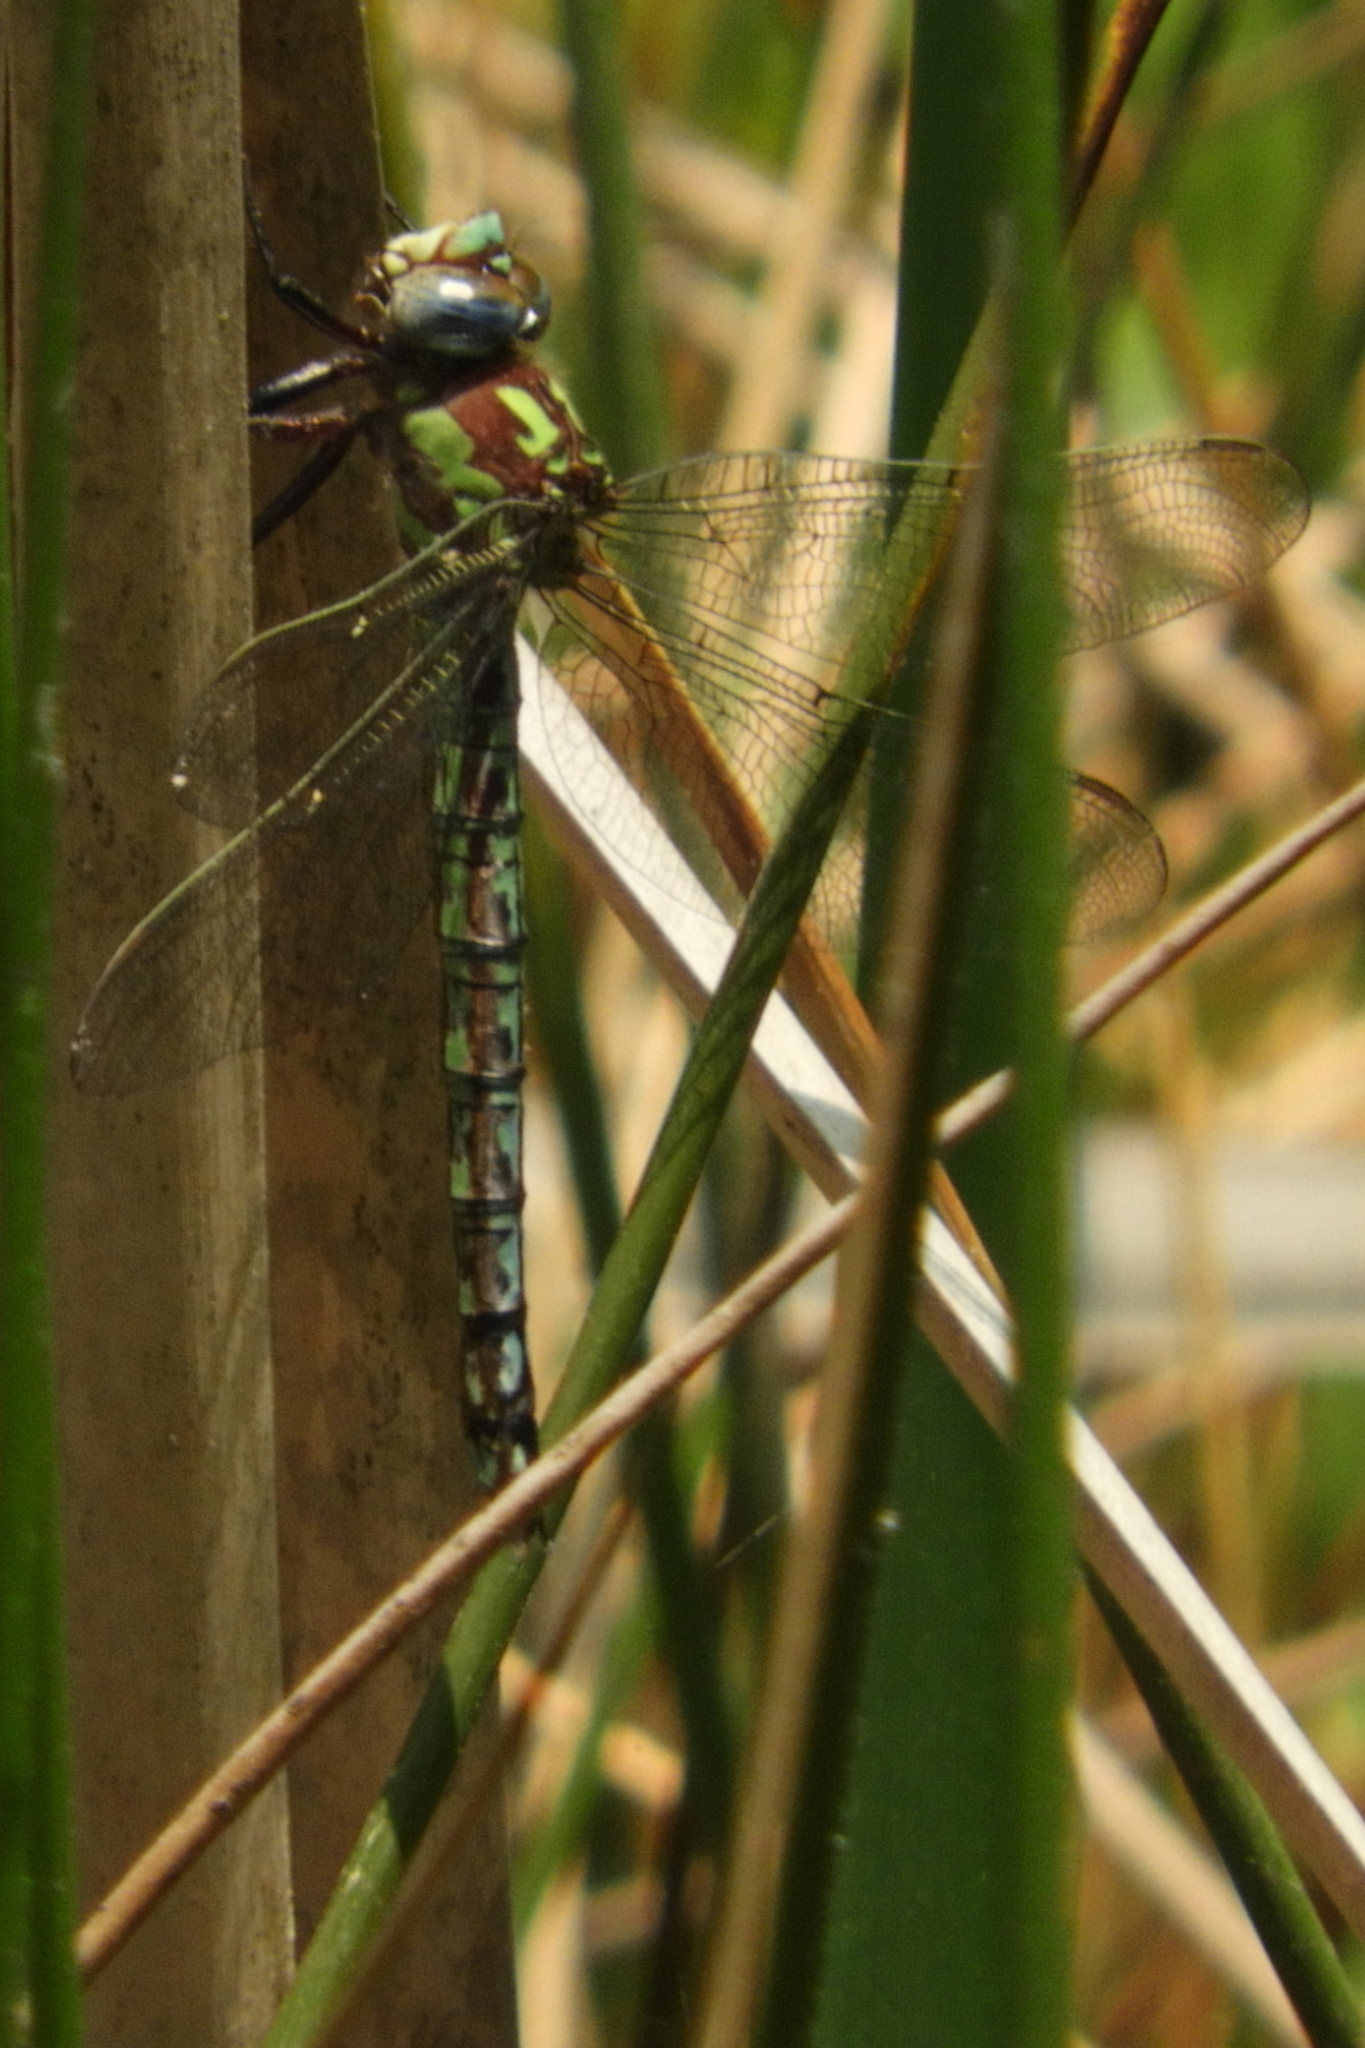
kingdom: Animalia
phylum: Arthropoda
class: Insecta
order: Odonata
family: Aeshnidae
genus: Nasiaeschna
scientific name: Nasiaeschna pentacantha
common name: Cyrano darner
